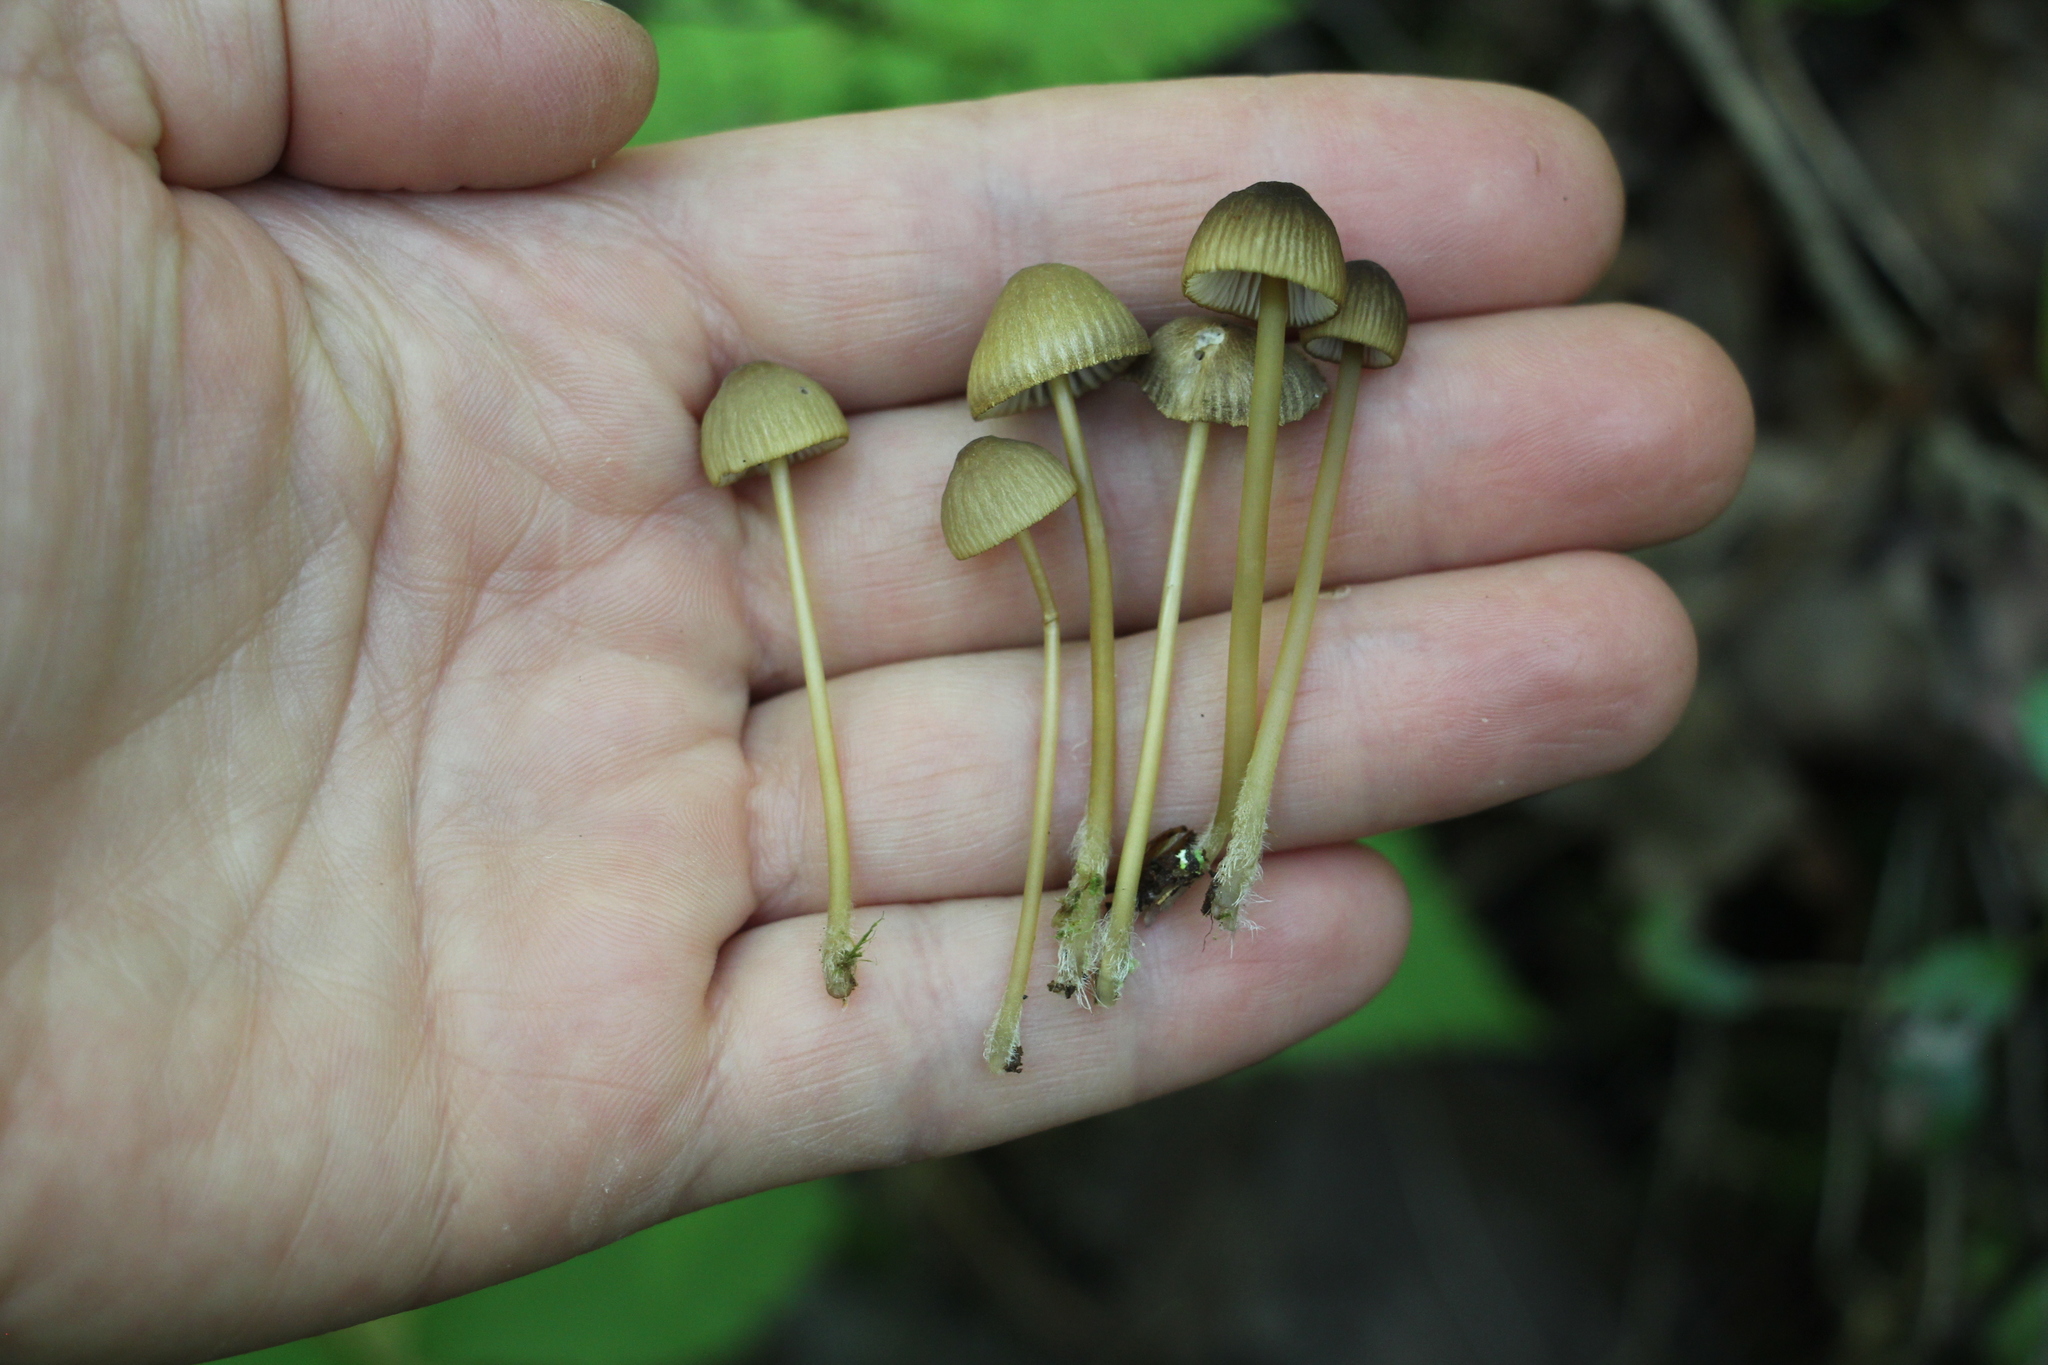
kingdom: Fungi
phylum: Basidiomycota
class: Agaricomycetes
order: Agaricales
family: Mycenaceae
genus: Mycena
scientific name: Mycena viridimarginata
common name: Olive edge bonnet
